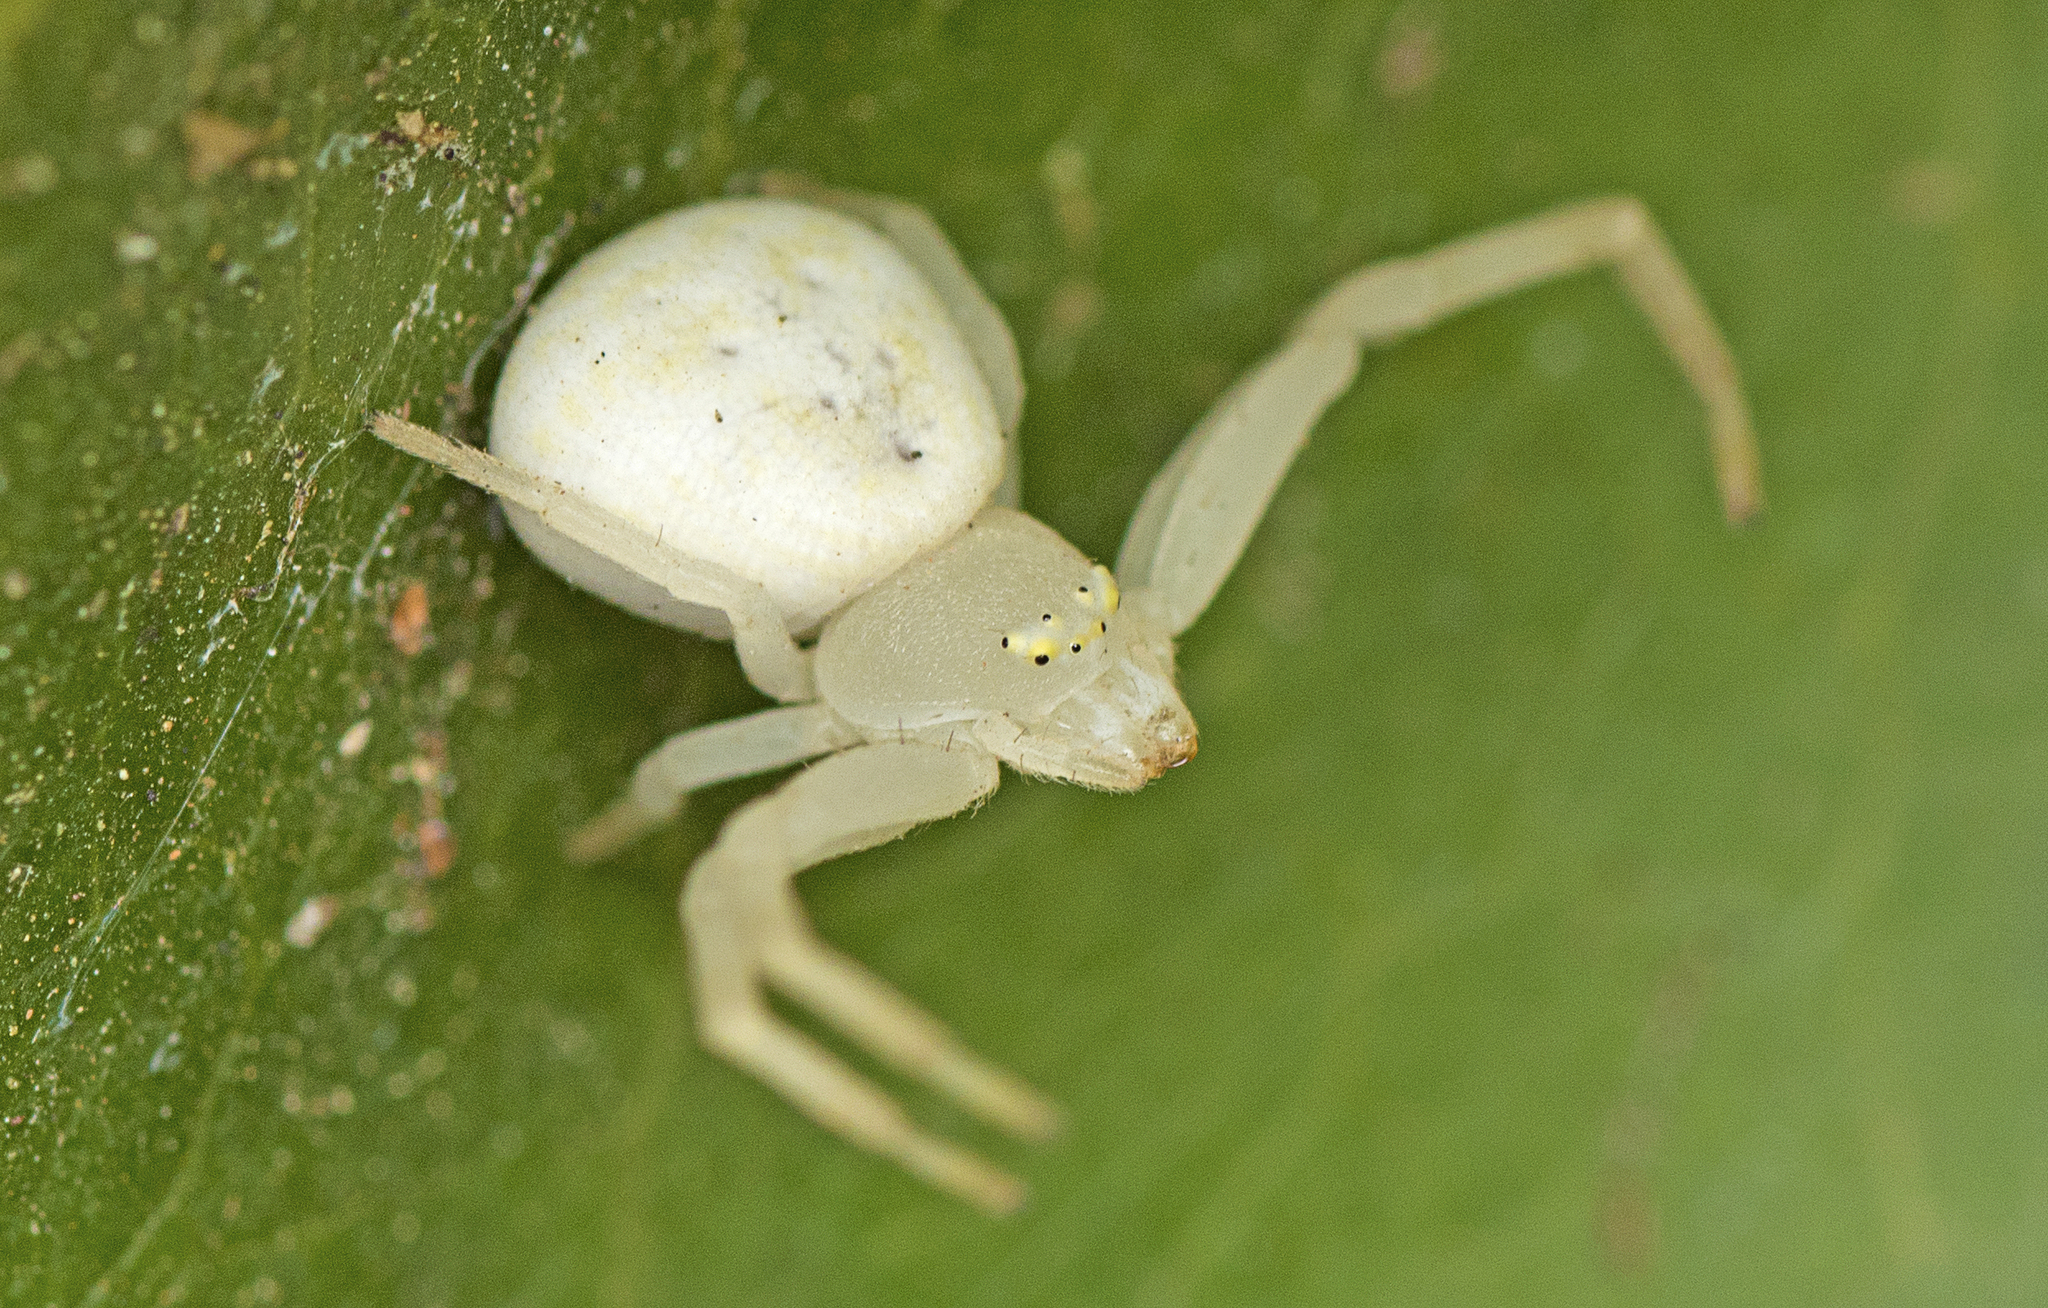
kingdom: Animalia
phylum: Arthropoda
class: Arachnida
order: Araneae
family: Thomisidae
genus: Zygometis
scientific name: Zygometis xanthogaster
